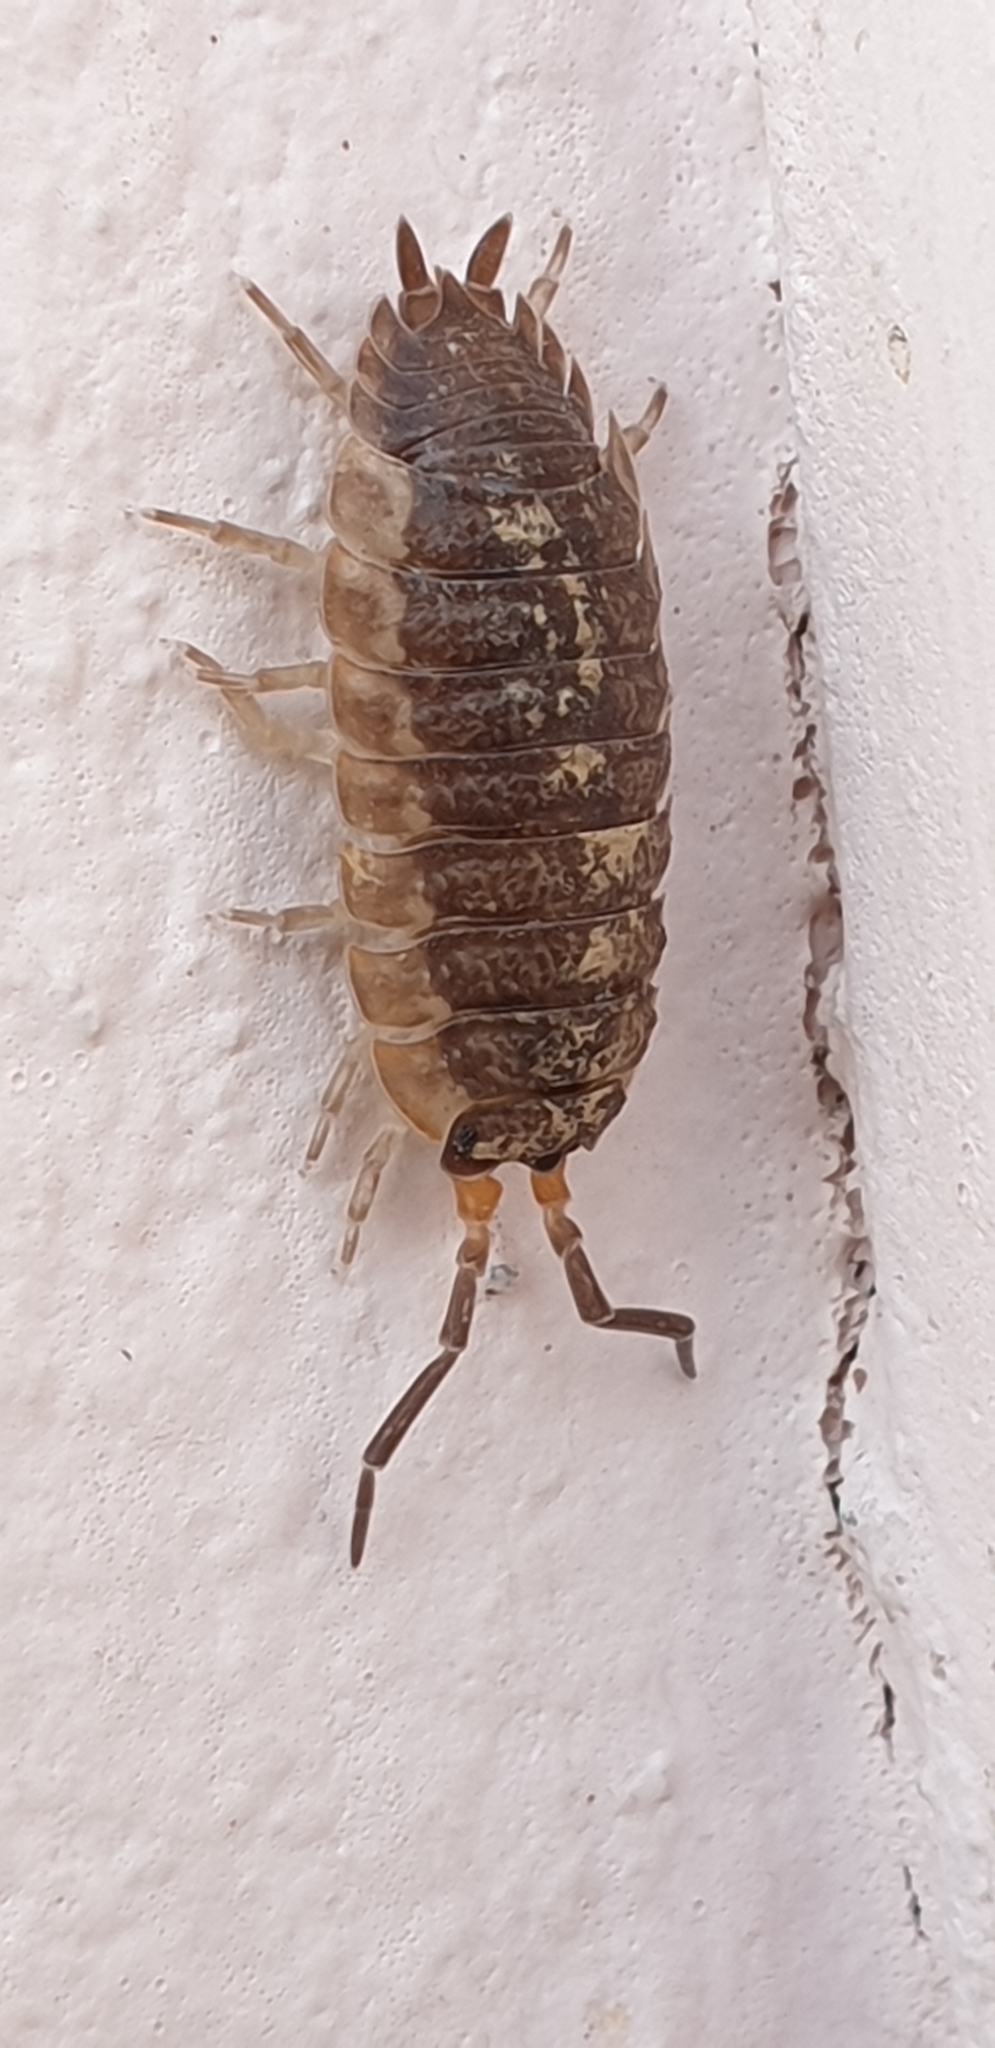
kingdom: Animalia
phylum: Arthropoda
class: Malacostraca
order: Isopoda
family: Porcellionidae
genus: Porcellio
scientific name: Porcellio scaber
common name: Common rough woodlouse
